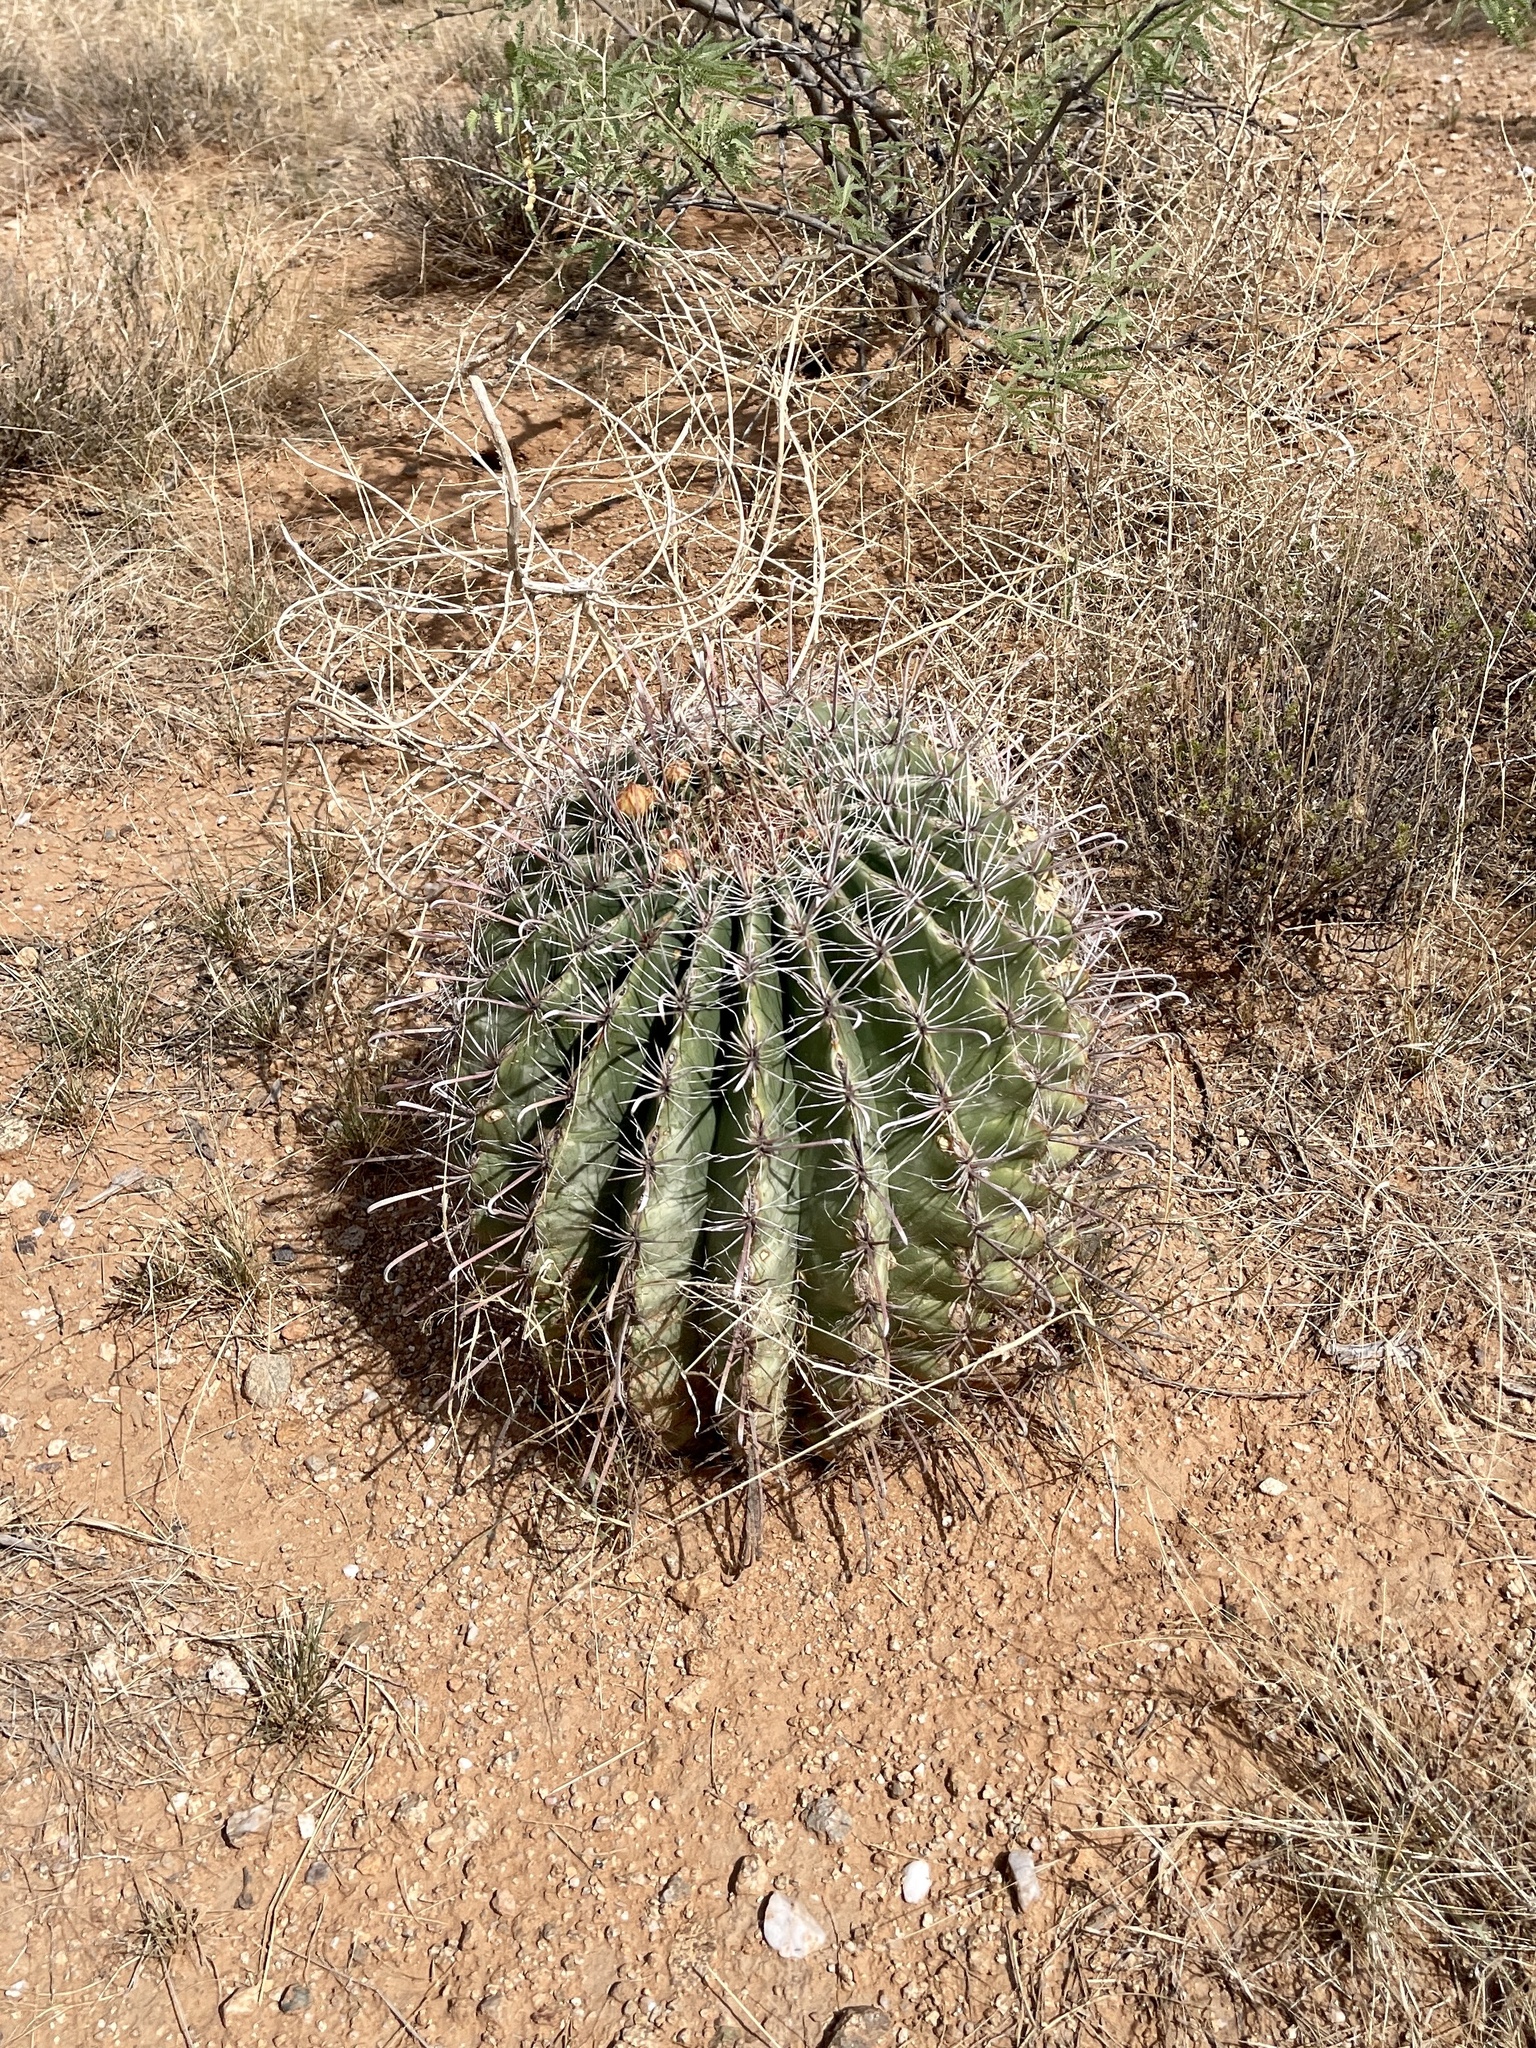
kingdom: Plantae
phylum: Tracheophyta
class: Magnoliopsida
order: Caryophyllales
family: Cactaceae
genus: Ferocactus
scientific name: Ferocactus wislizeni
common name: Candy barrel cactus
